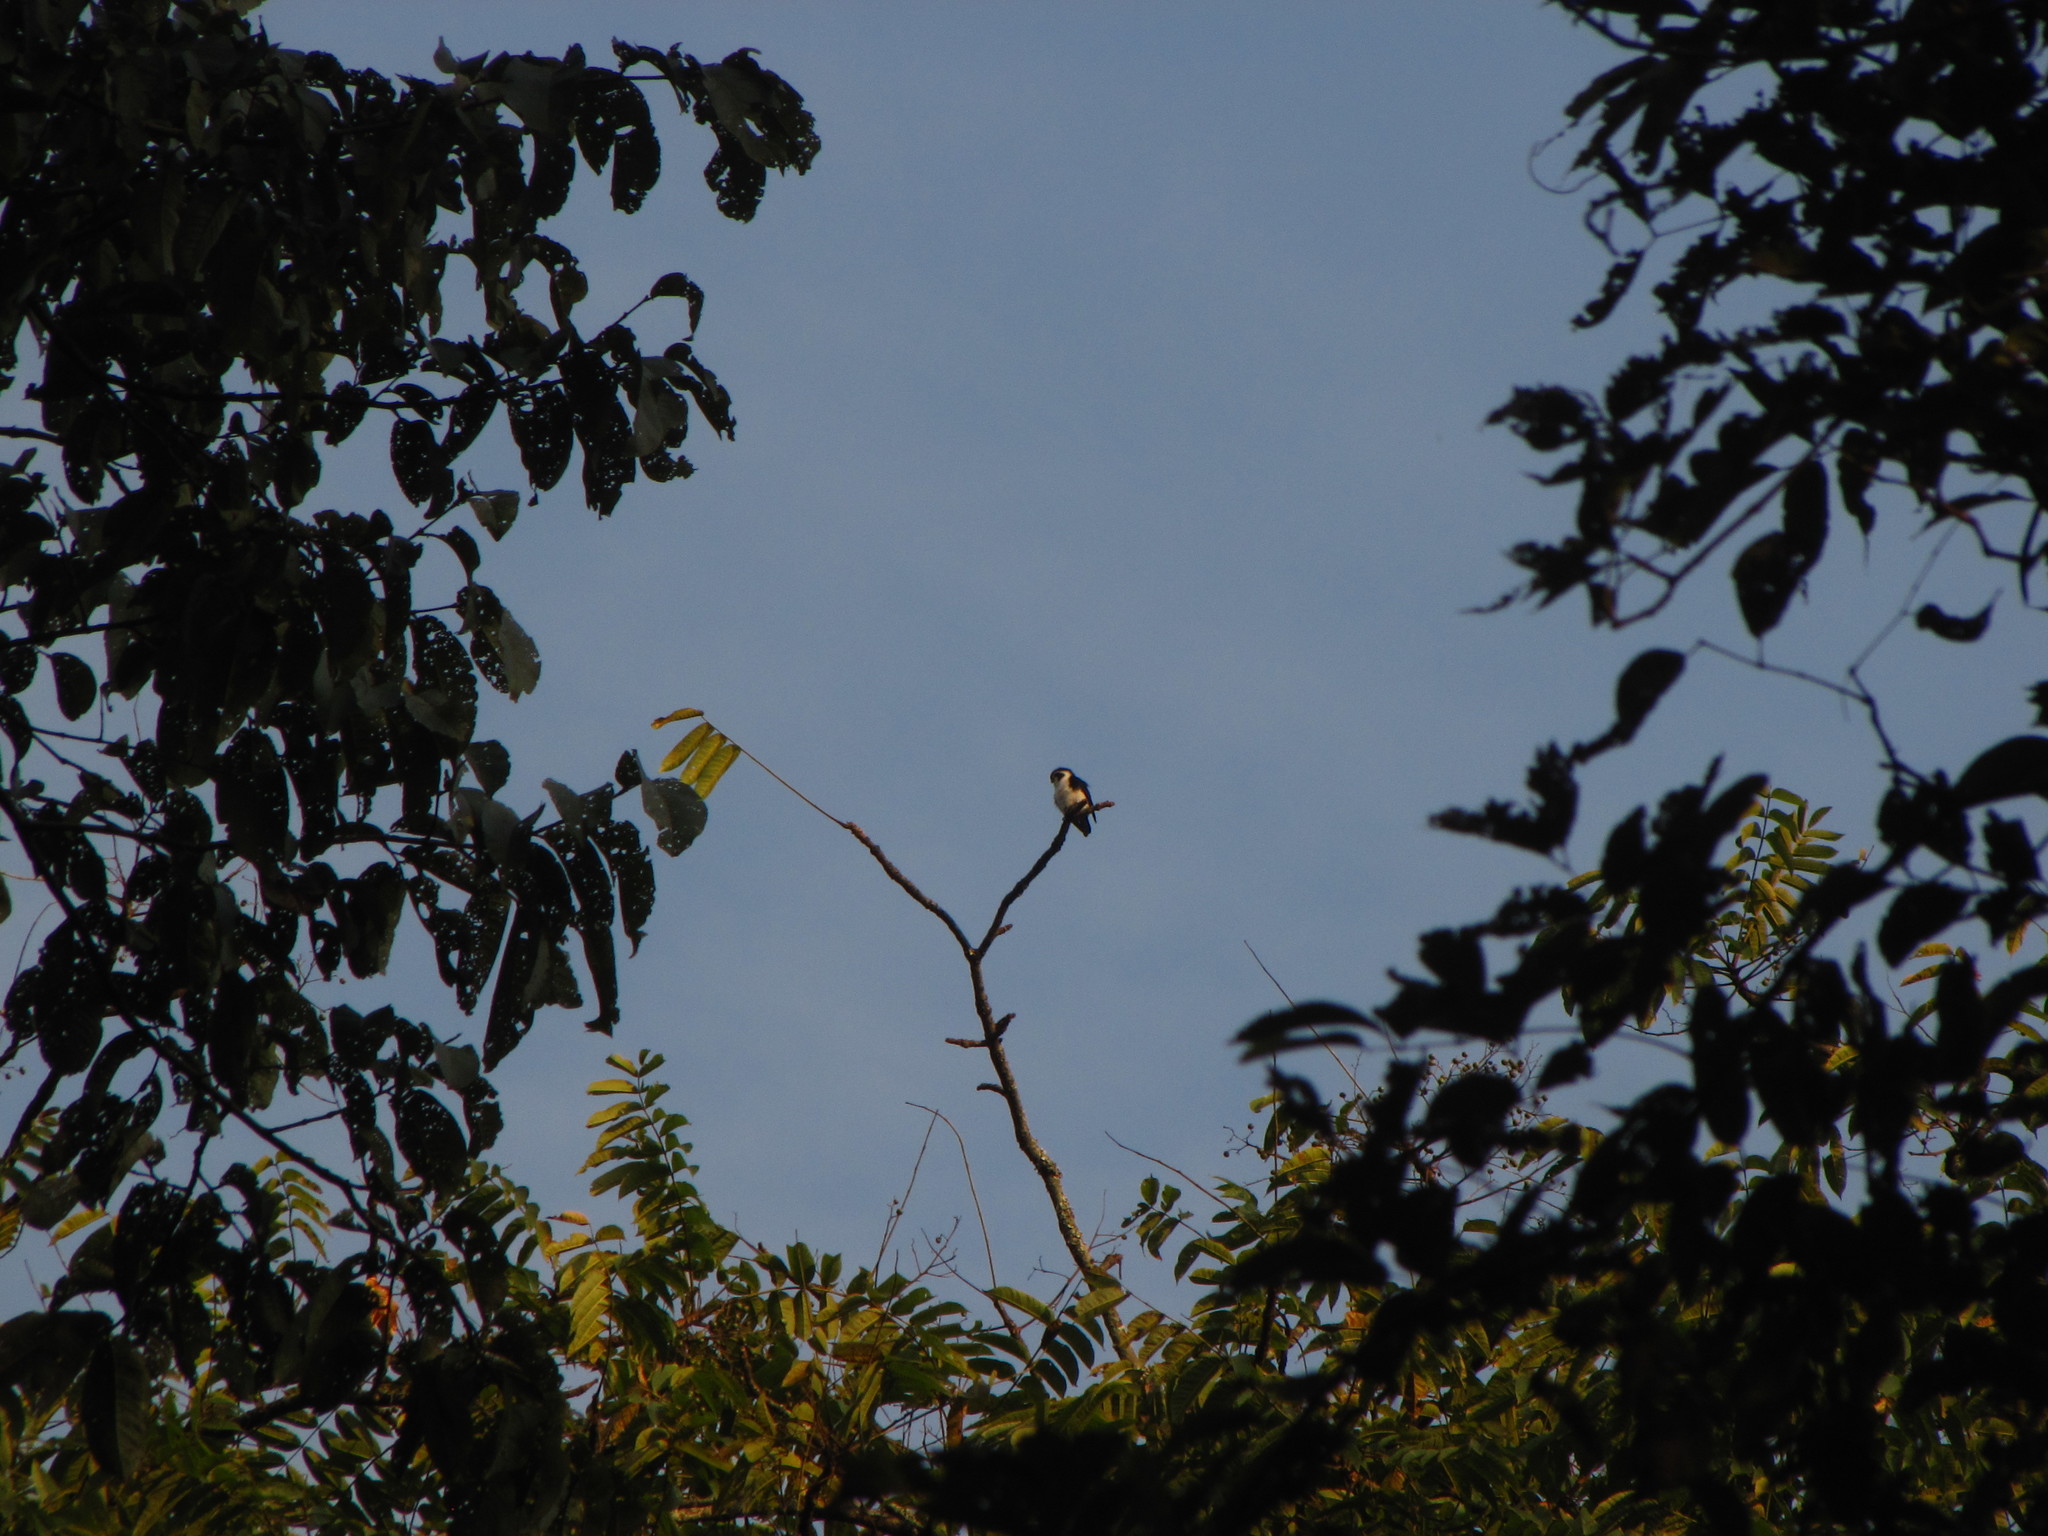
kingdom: Animalia
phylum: Chordata
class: Aves
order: Falconiformes
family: Falconidae
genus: Microhierax
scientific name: Microhierax melanoleucos
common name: Pied falconet
